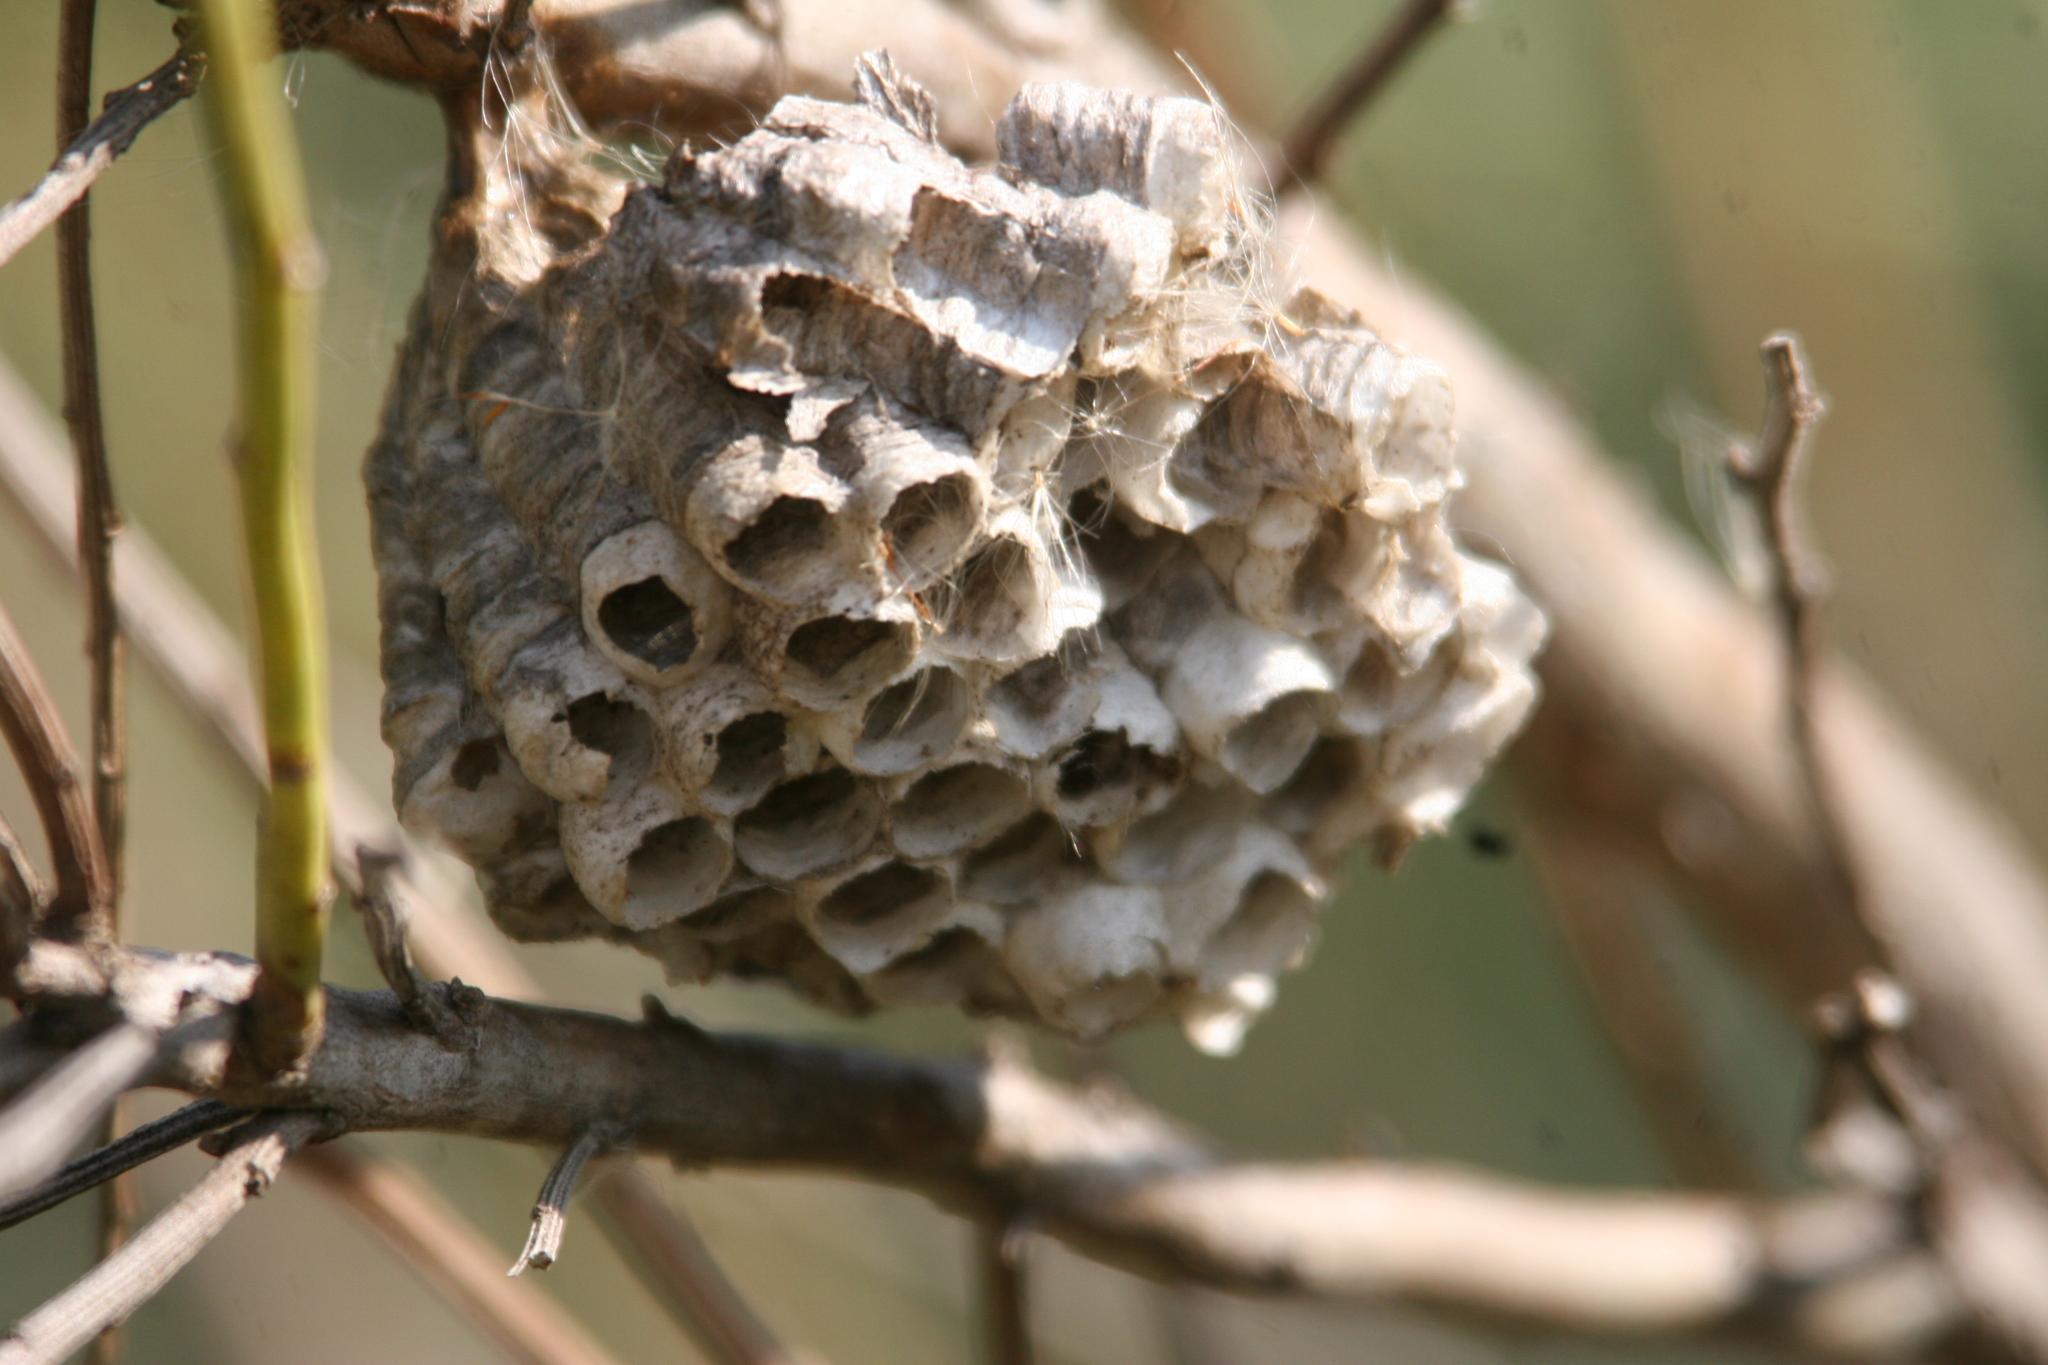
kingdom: Animalia
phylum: Arthropoda
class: Insecta
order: Hymenoptera
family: Eumenidae
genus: Polistes
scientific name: Polistes
